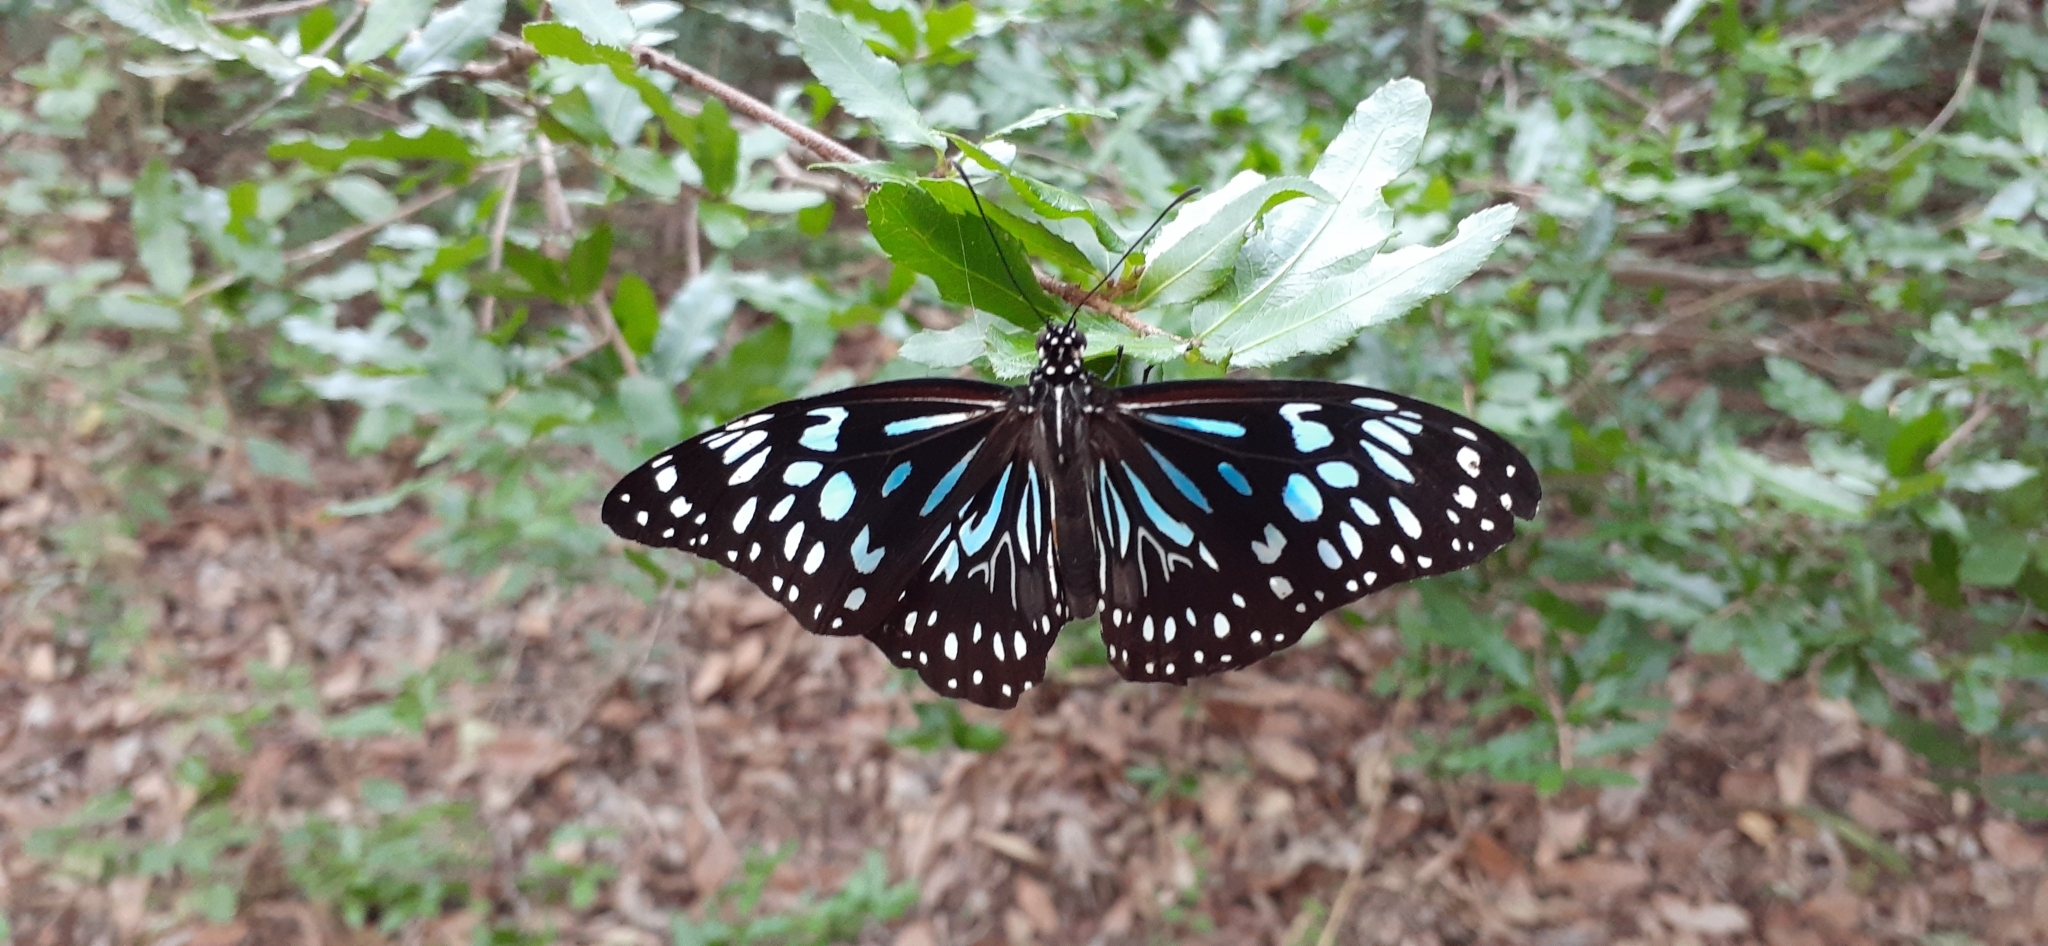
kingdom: Animalia
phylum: Arthropoda
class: Insecta
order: Lepidoptera
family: Nymphalidae
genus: Tirumala
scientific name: Tirumala hamata
